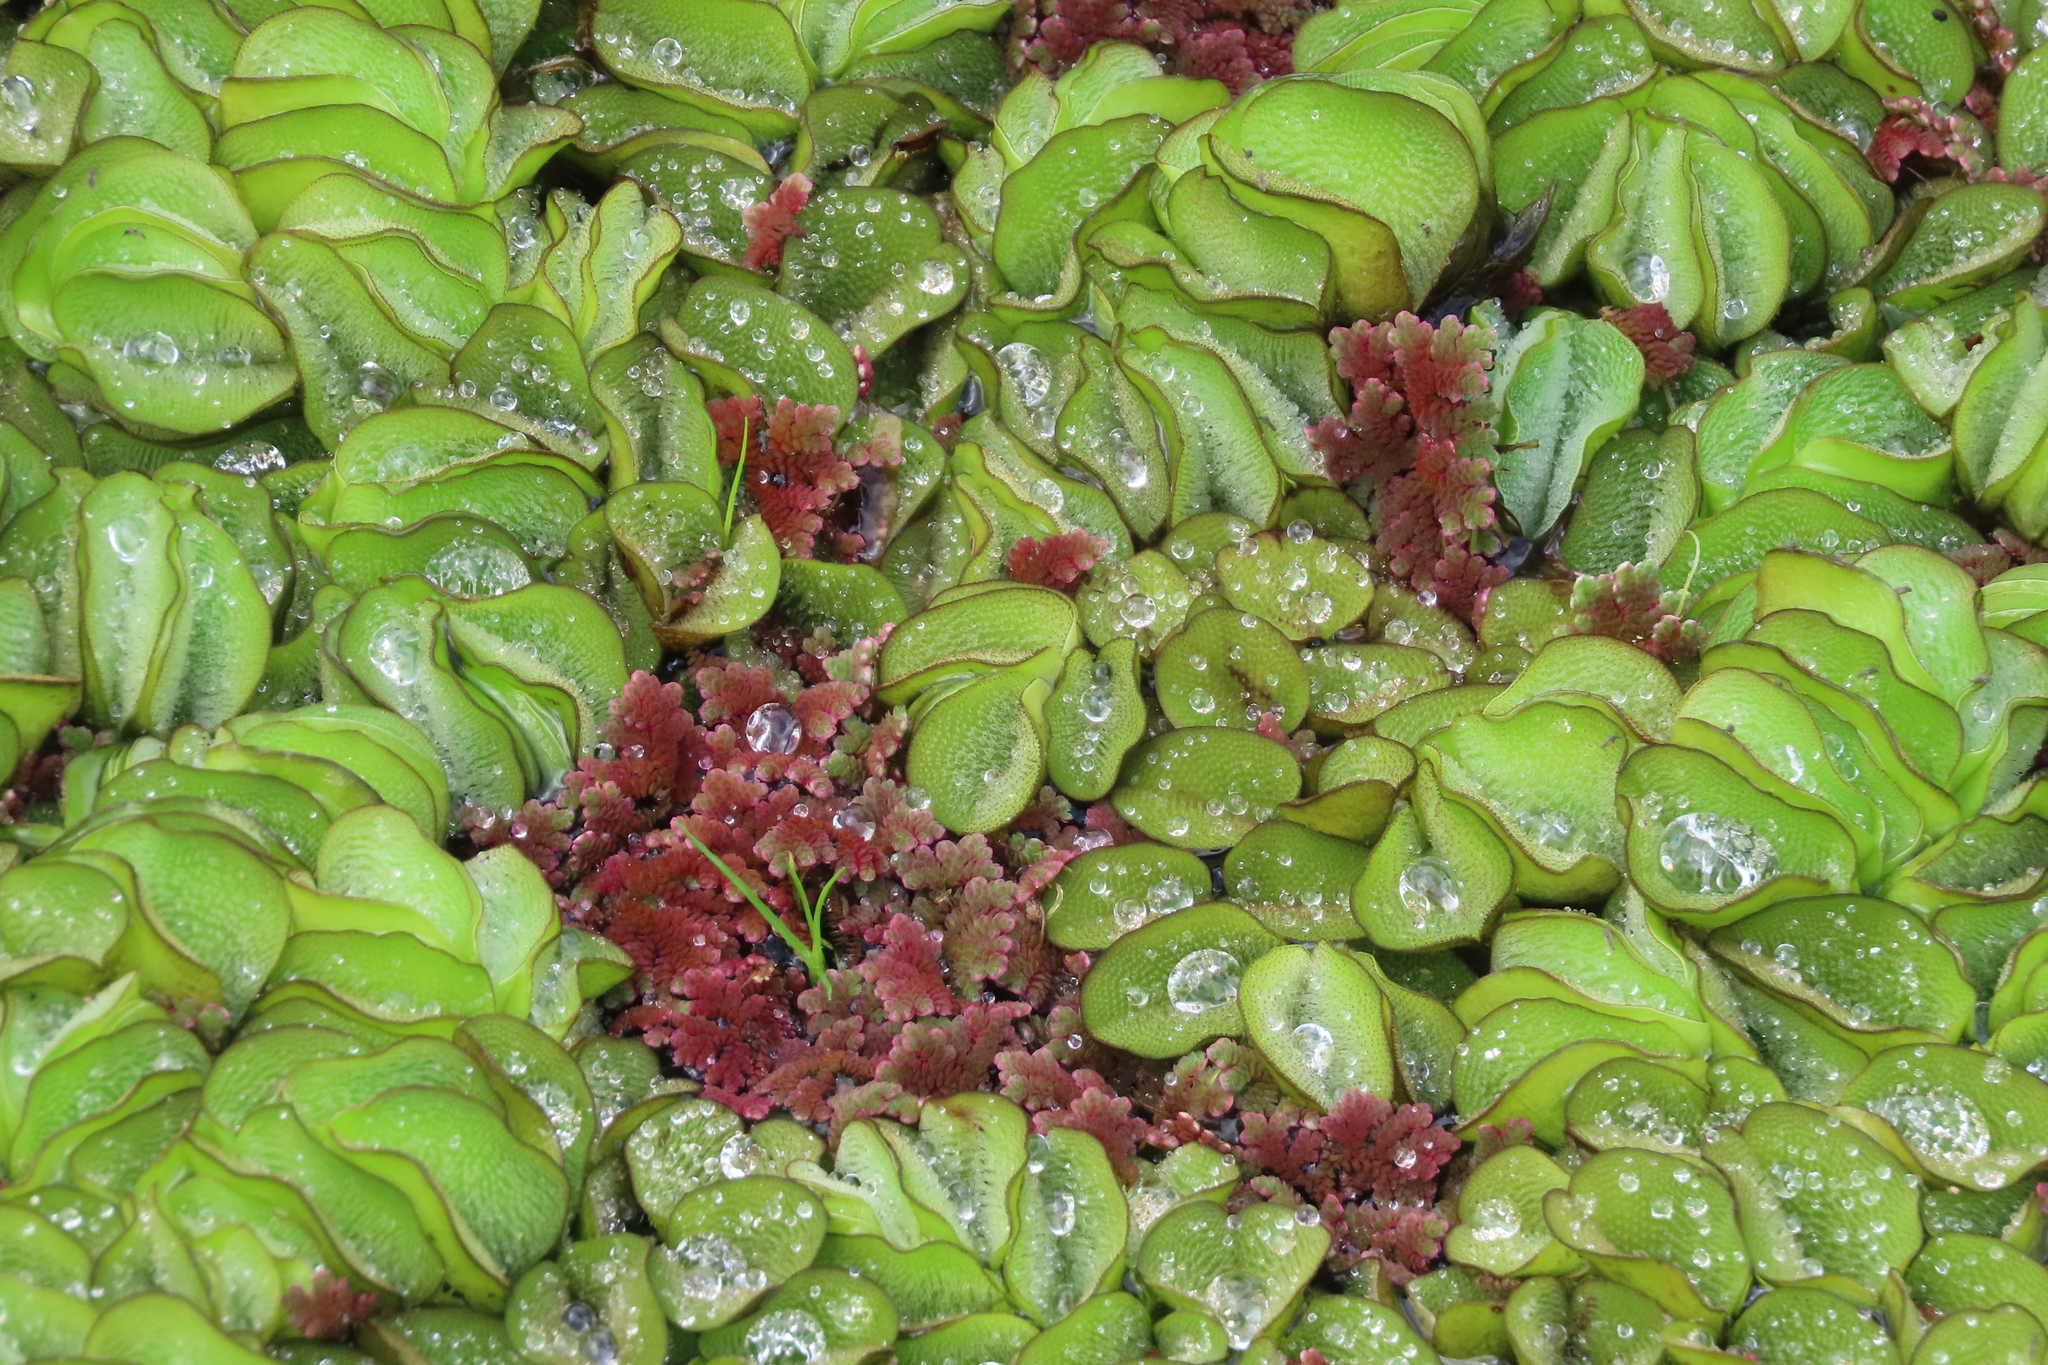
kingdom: Plantae
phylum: Tracheophyta
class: Polypodiopsida
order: Salviniales
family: Salviniaceae
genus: Salvinia
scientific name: Salvinia molesta
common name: Kariba weed
